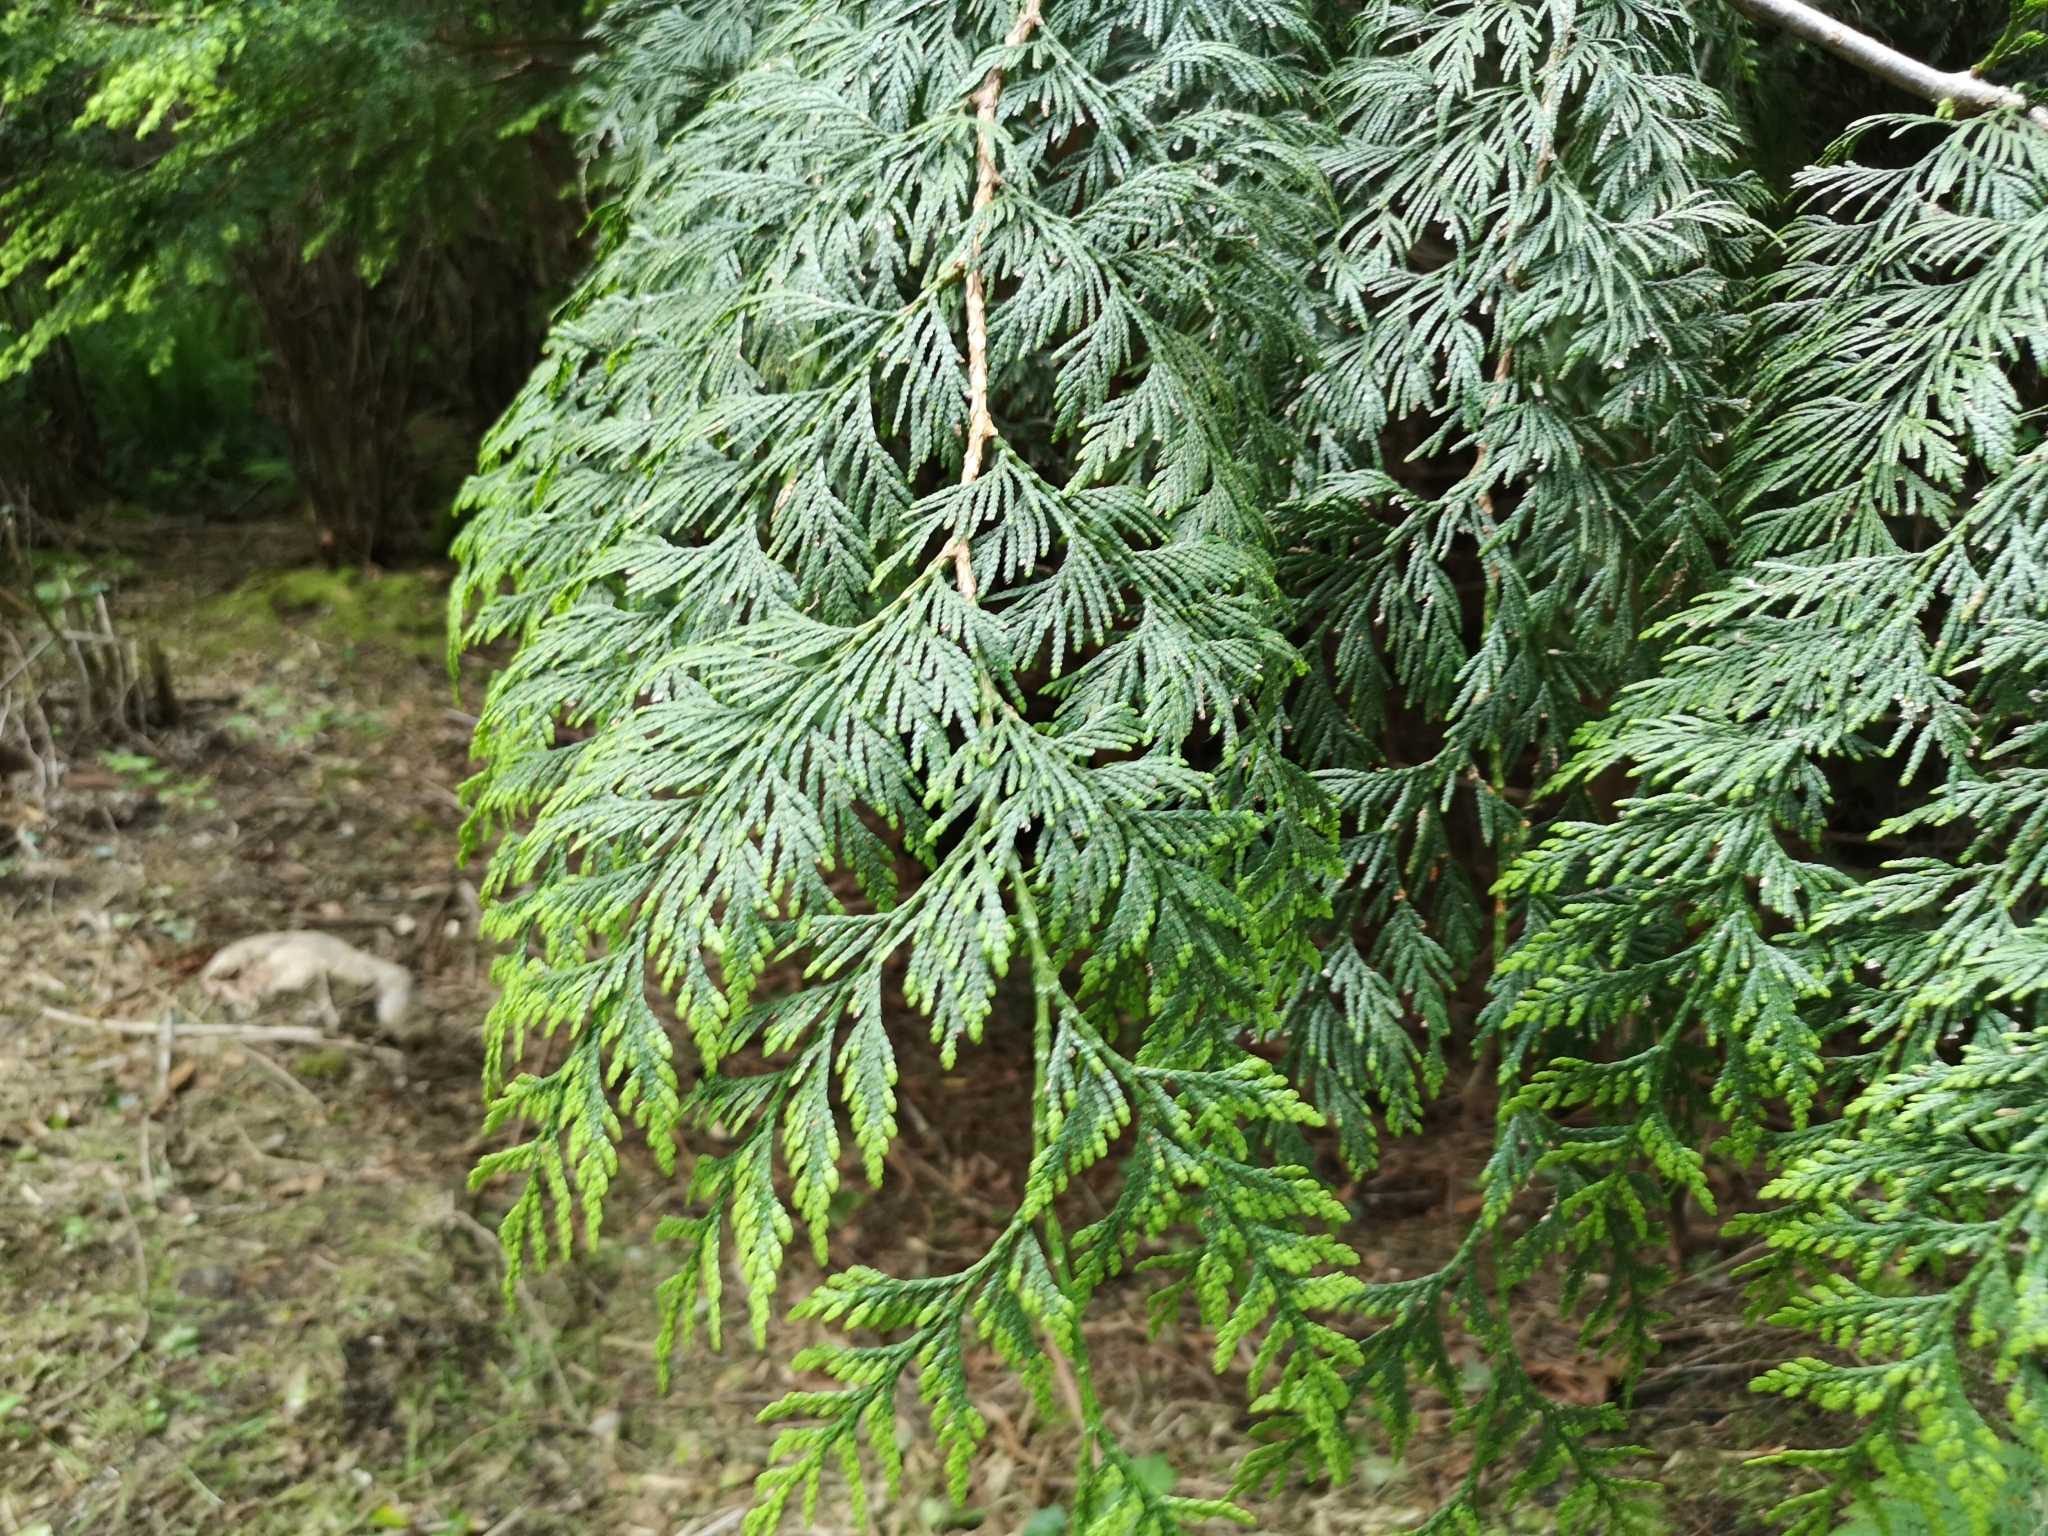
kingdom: Plantae
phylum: Tracheophyta
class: Pinopsida
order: Pinales
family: Cupressaceae
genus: Thuja
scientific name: Thuja plicata
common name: Western red-cedar
